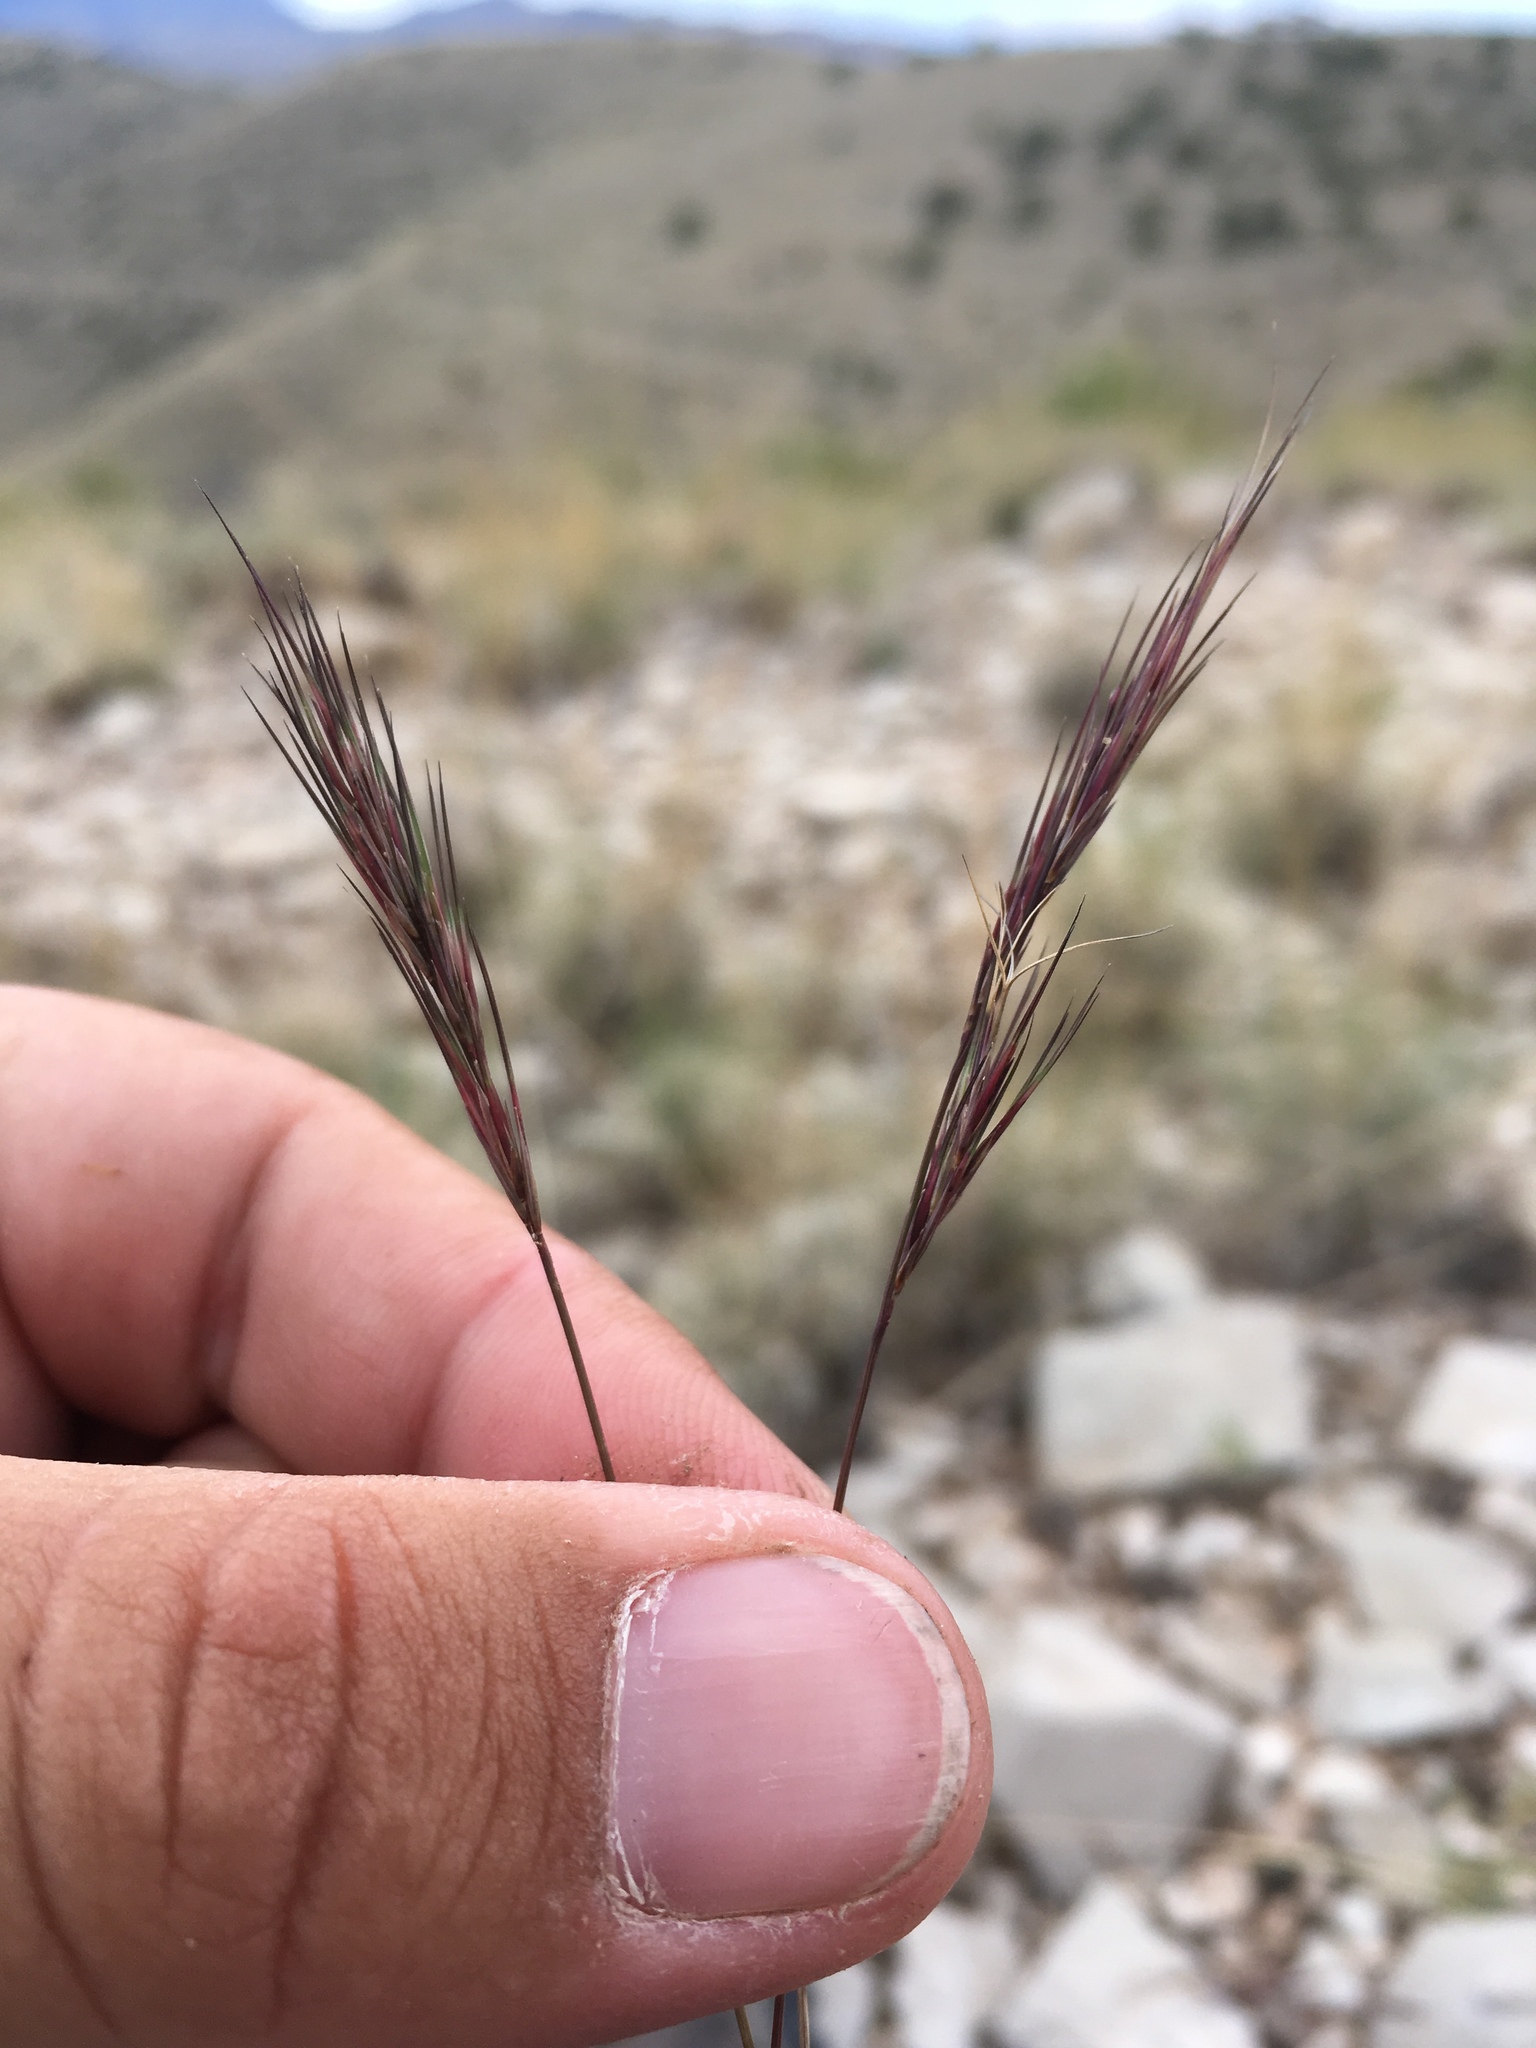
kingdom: Plantae
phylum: Tracheophyta
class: Liliopsida
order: Poales
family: Poaceae
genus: Aristida
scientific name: Aristida adscensionis
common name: Sixweeks threeawn
